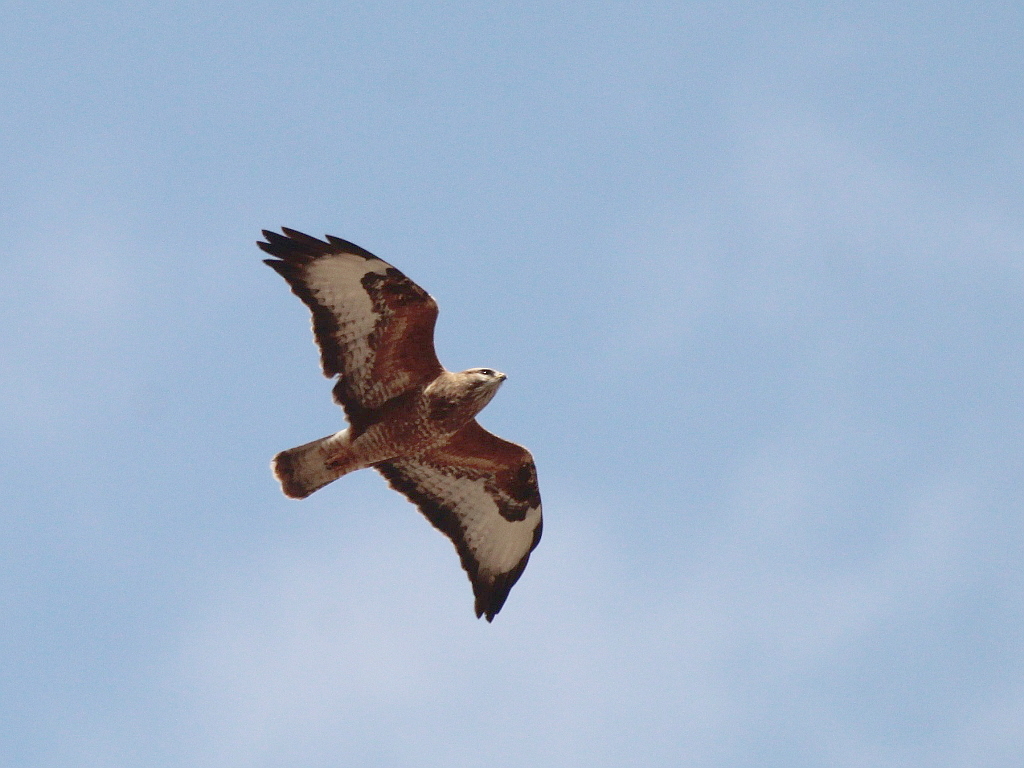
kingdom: Animalia
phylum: Chordata
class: Aves
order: Accipitriformes
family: Accipitridae
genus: Buteo
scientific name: Buteo buteo
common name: Common buzzard
